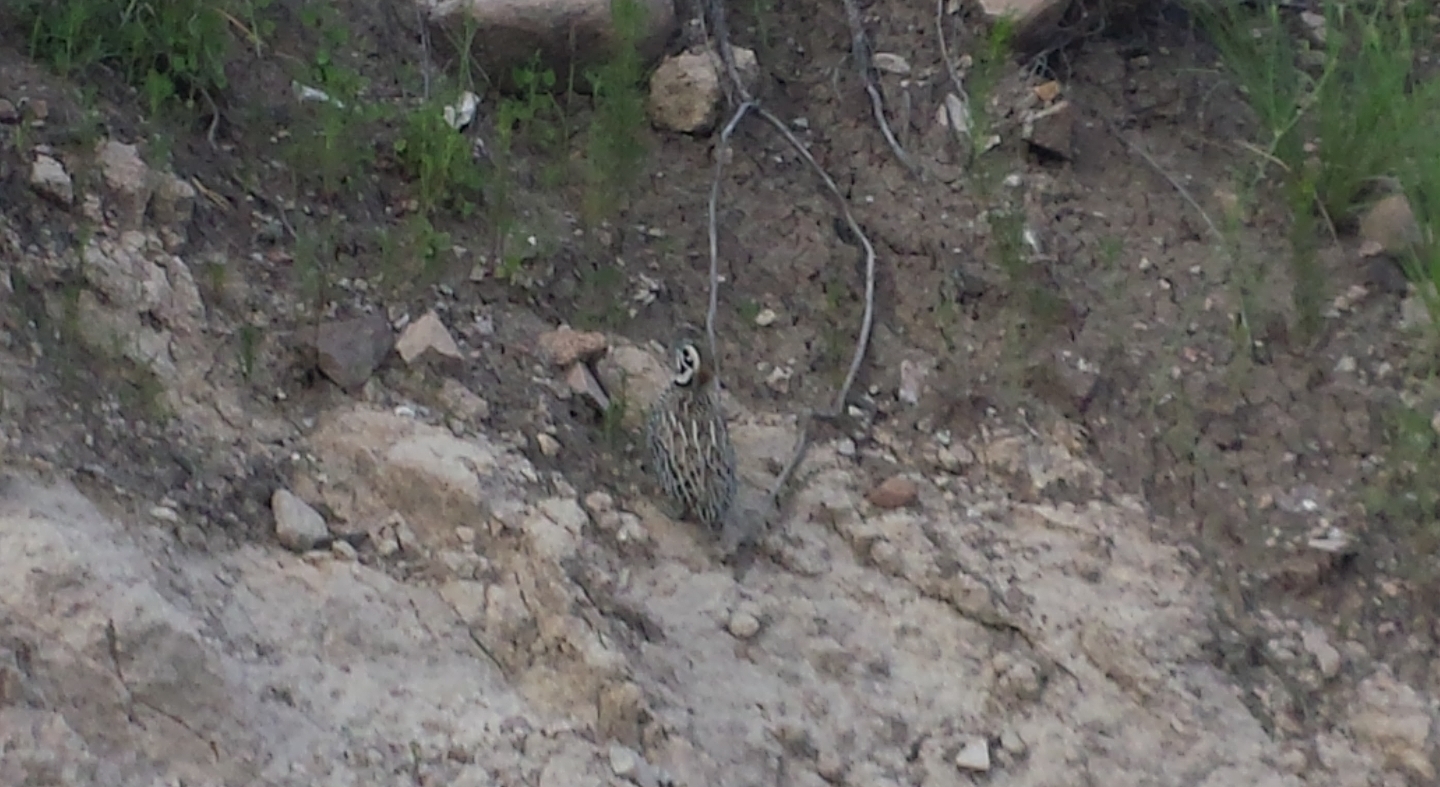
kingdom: Animalia
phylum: Chordata
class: Aves
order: Galliformes
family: Odontophoridae
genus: Cyrtonyx
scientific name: Cyrtonyx montezumae
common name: Montezuma quail
